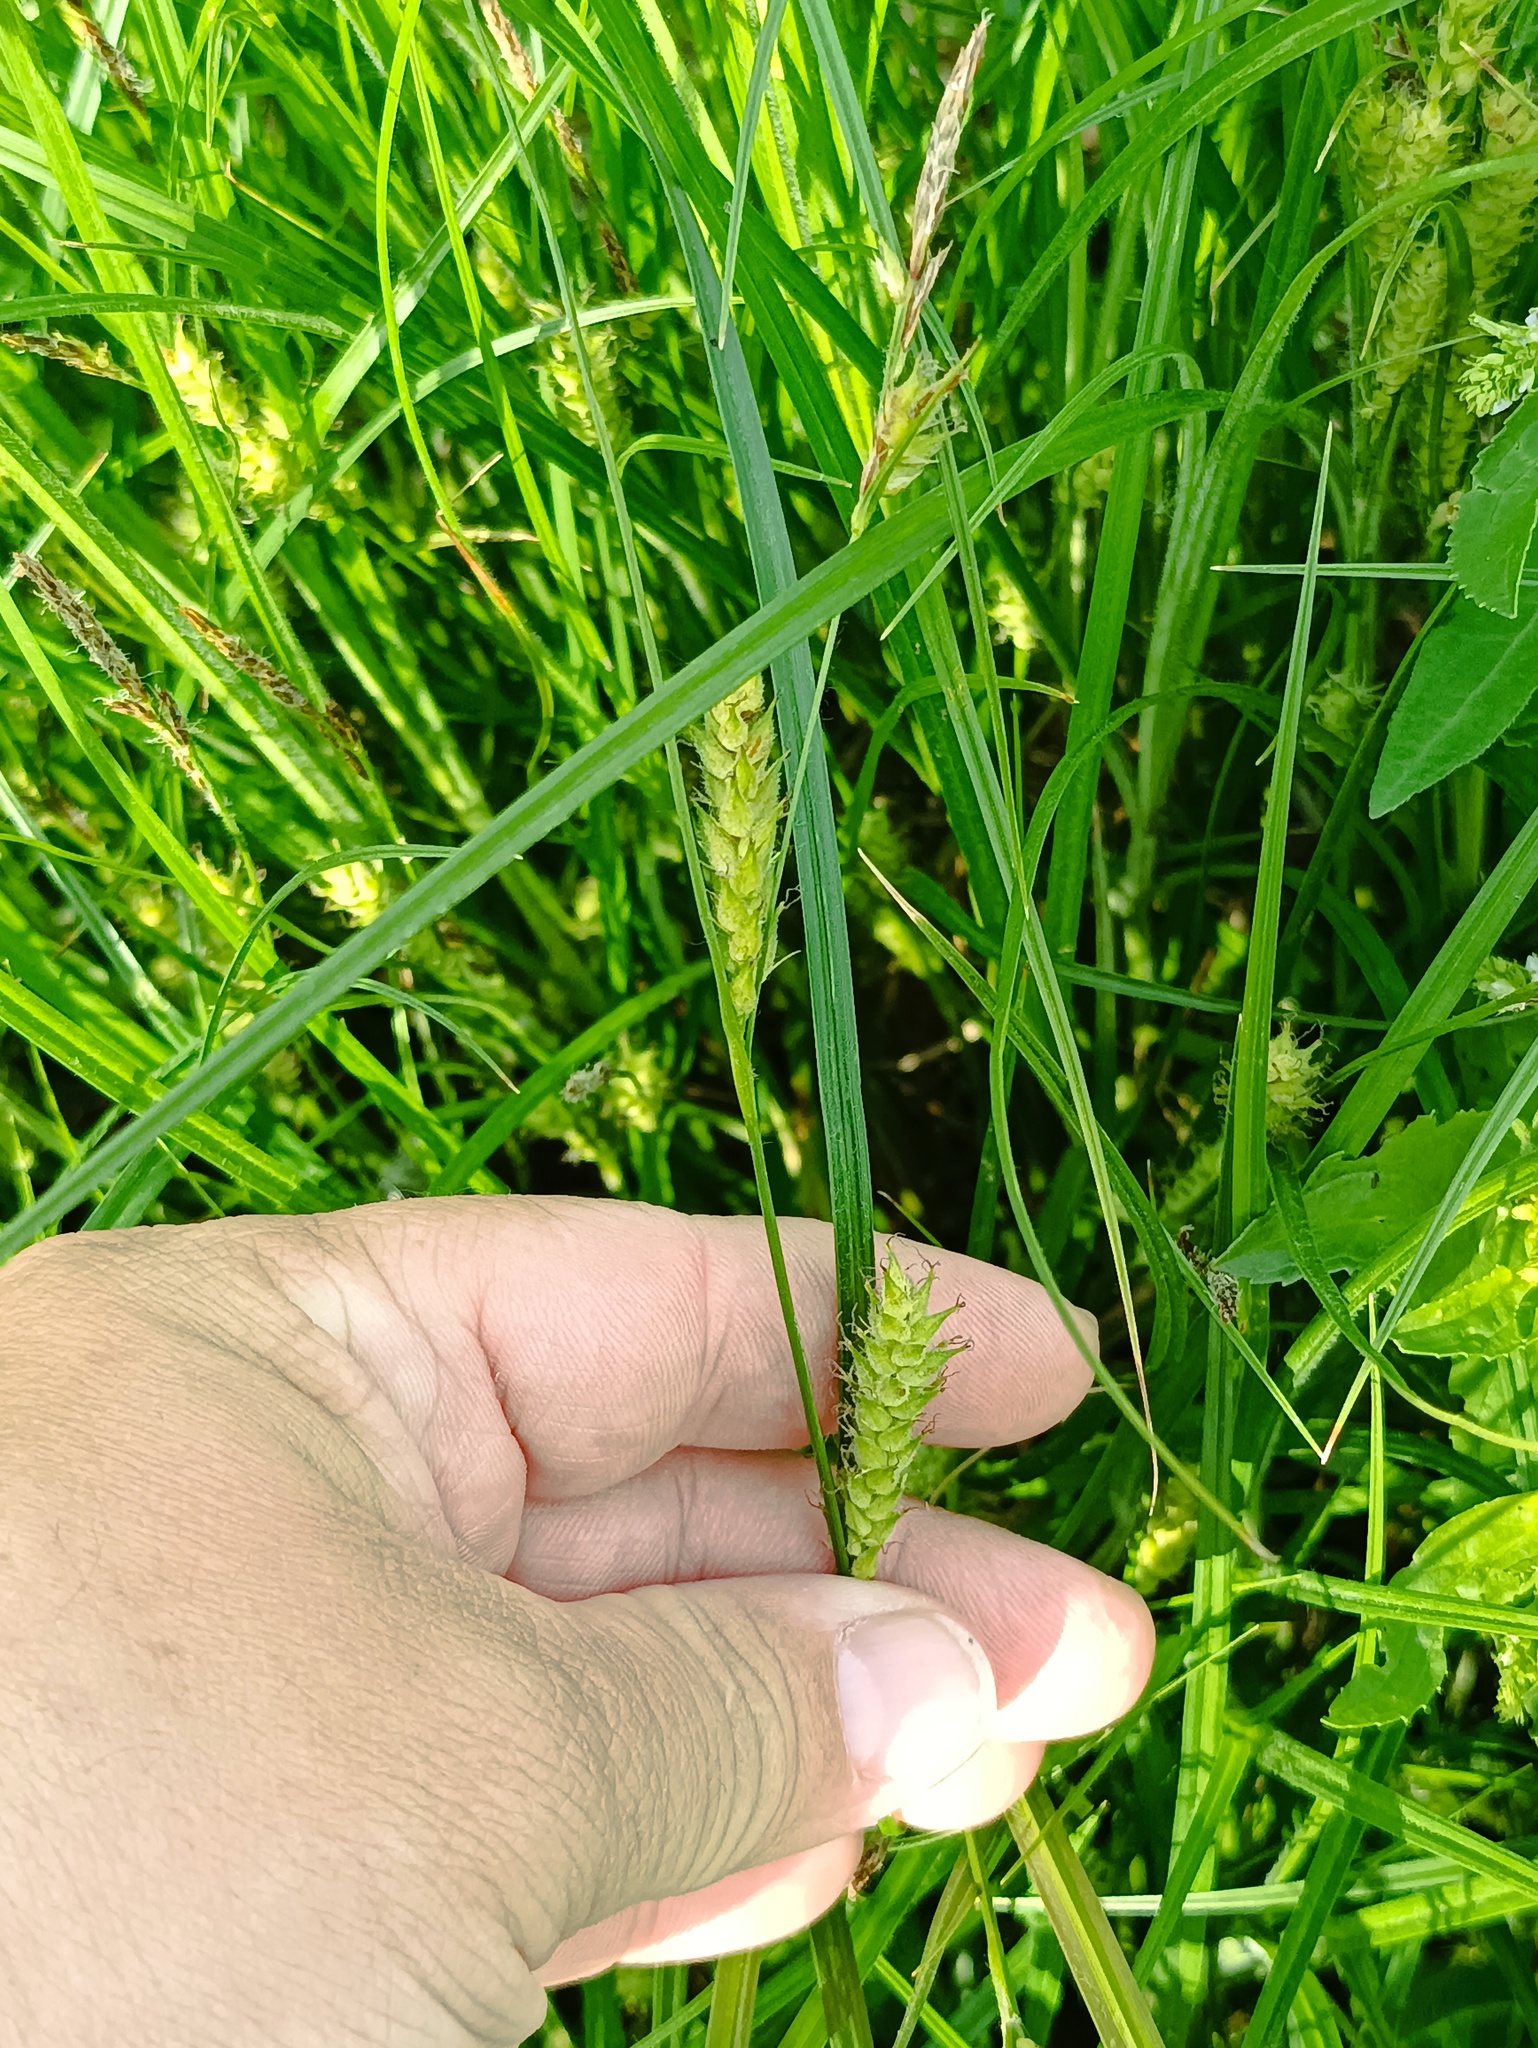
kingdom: Plantae
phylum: Tracheophyta
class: Liliopsida
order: Poales
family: Cyperaceae
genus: Carex
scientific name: Carex hirta
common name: Hairy sedge
